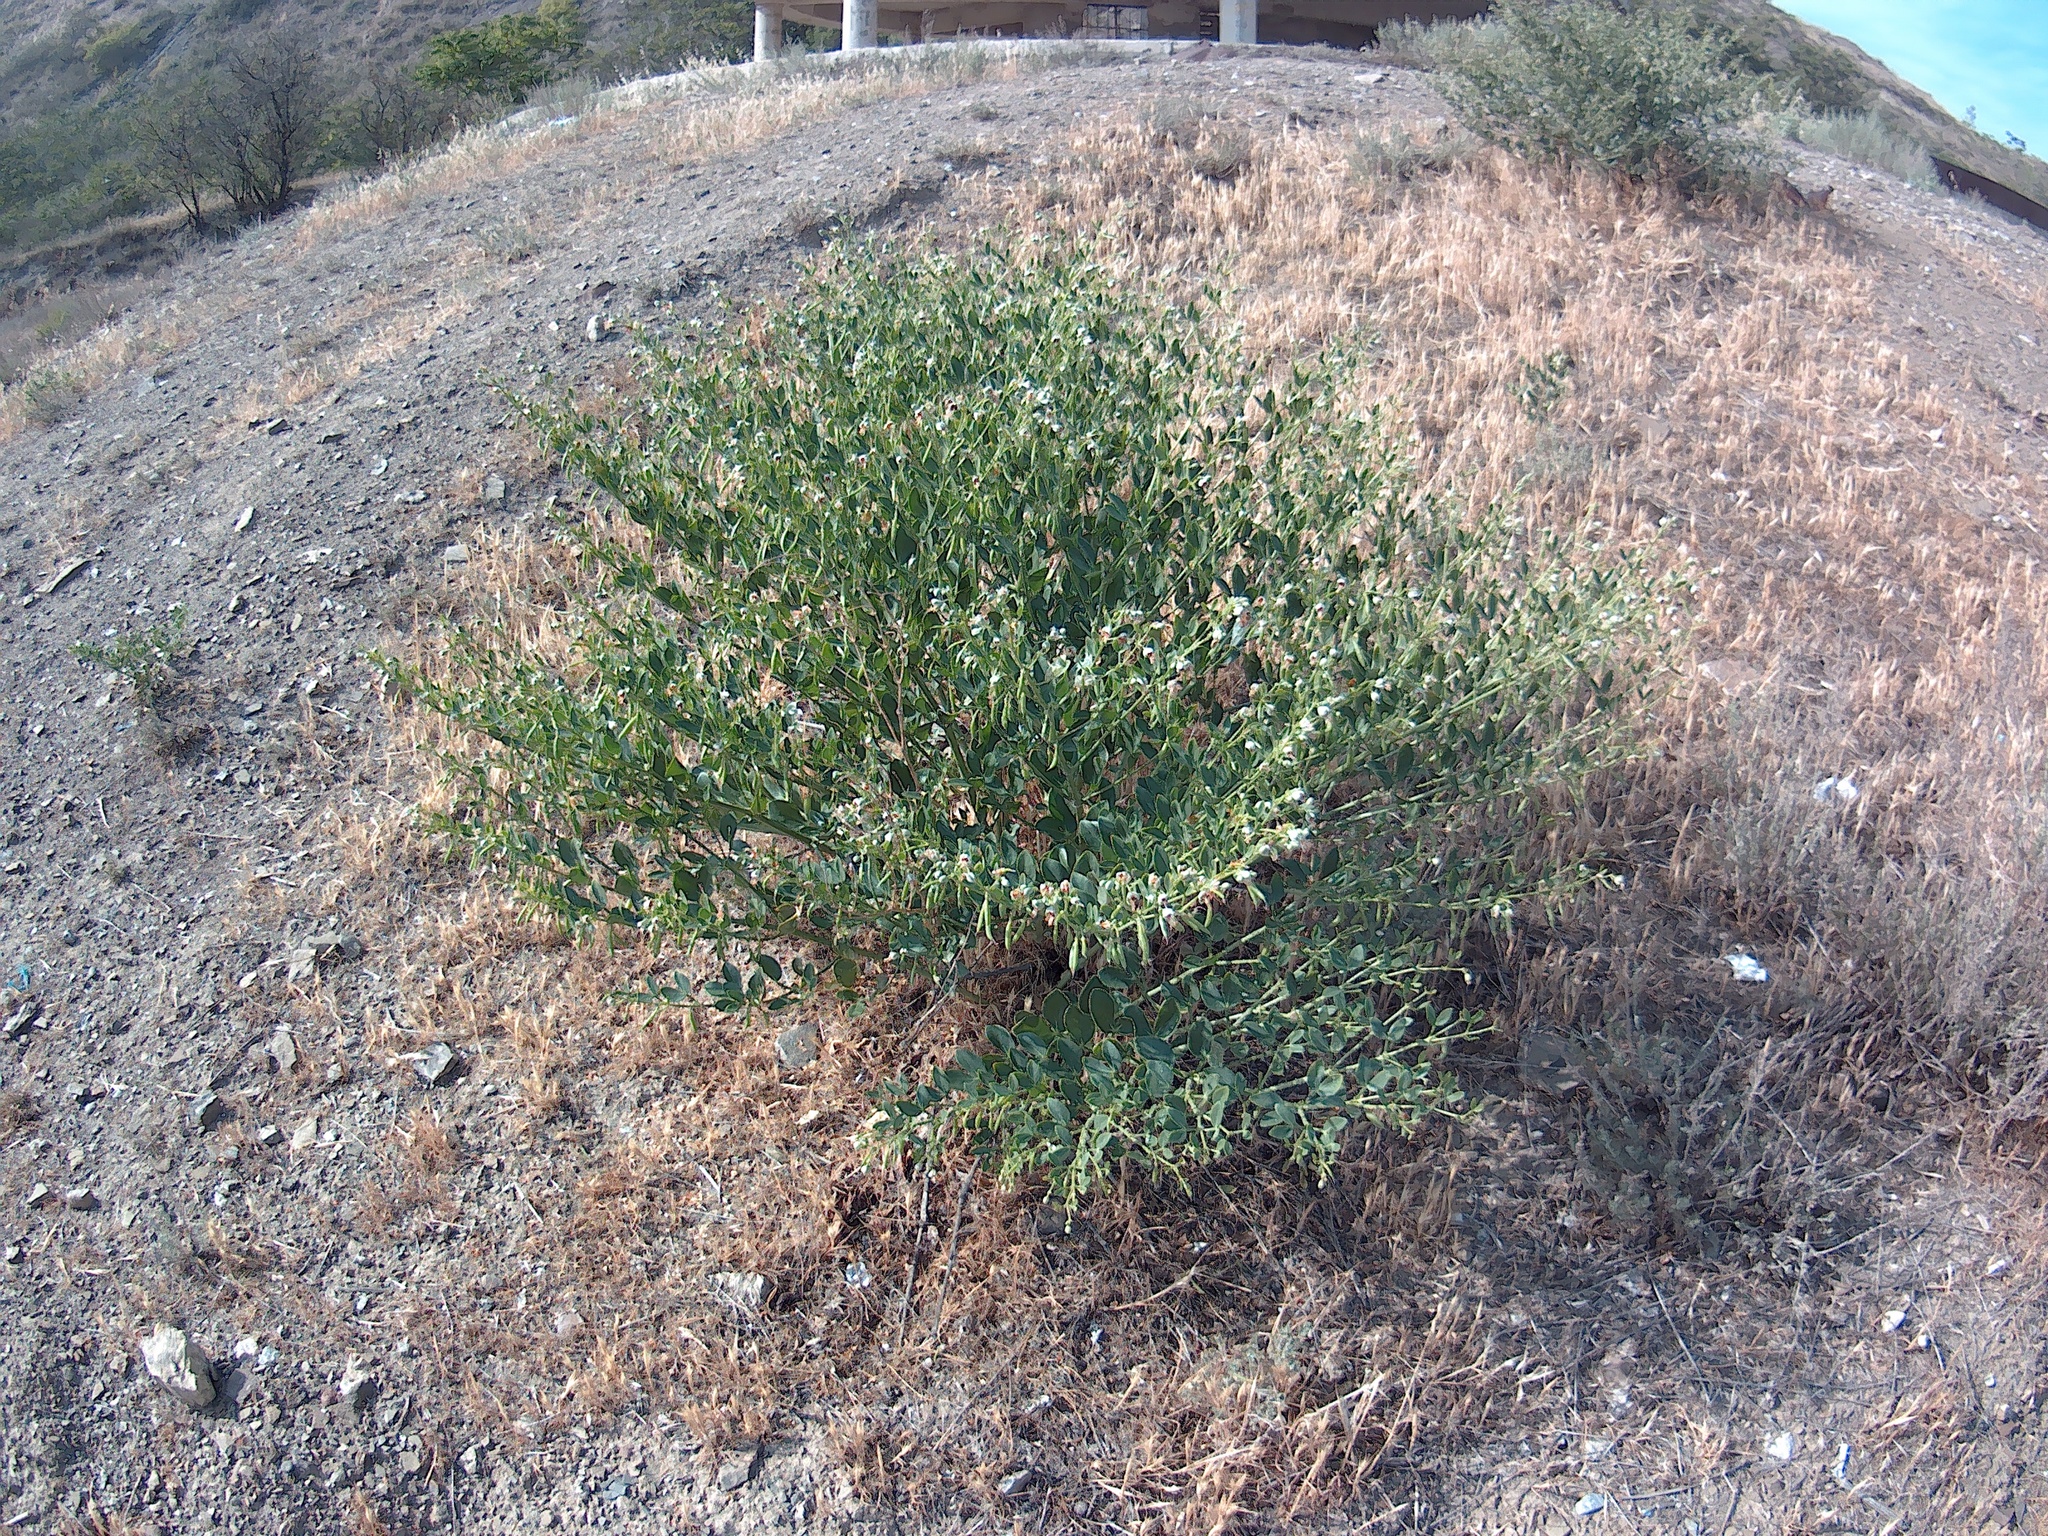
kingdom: Plantae
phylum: Tracheophyta
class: Magnoliopsida
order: Zygophyllales
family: Zygophyllaceae
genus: Zygophyllum
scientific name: Zygophyllum fabago
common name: Syrian beancaper
